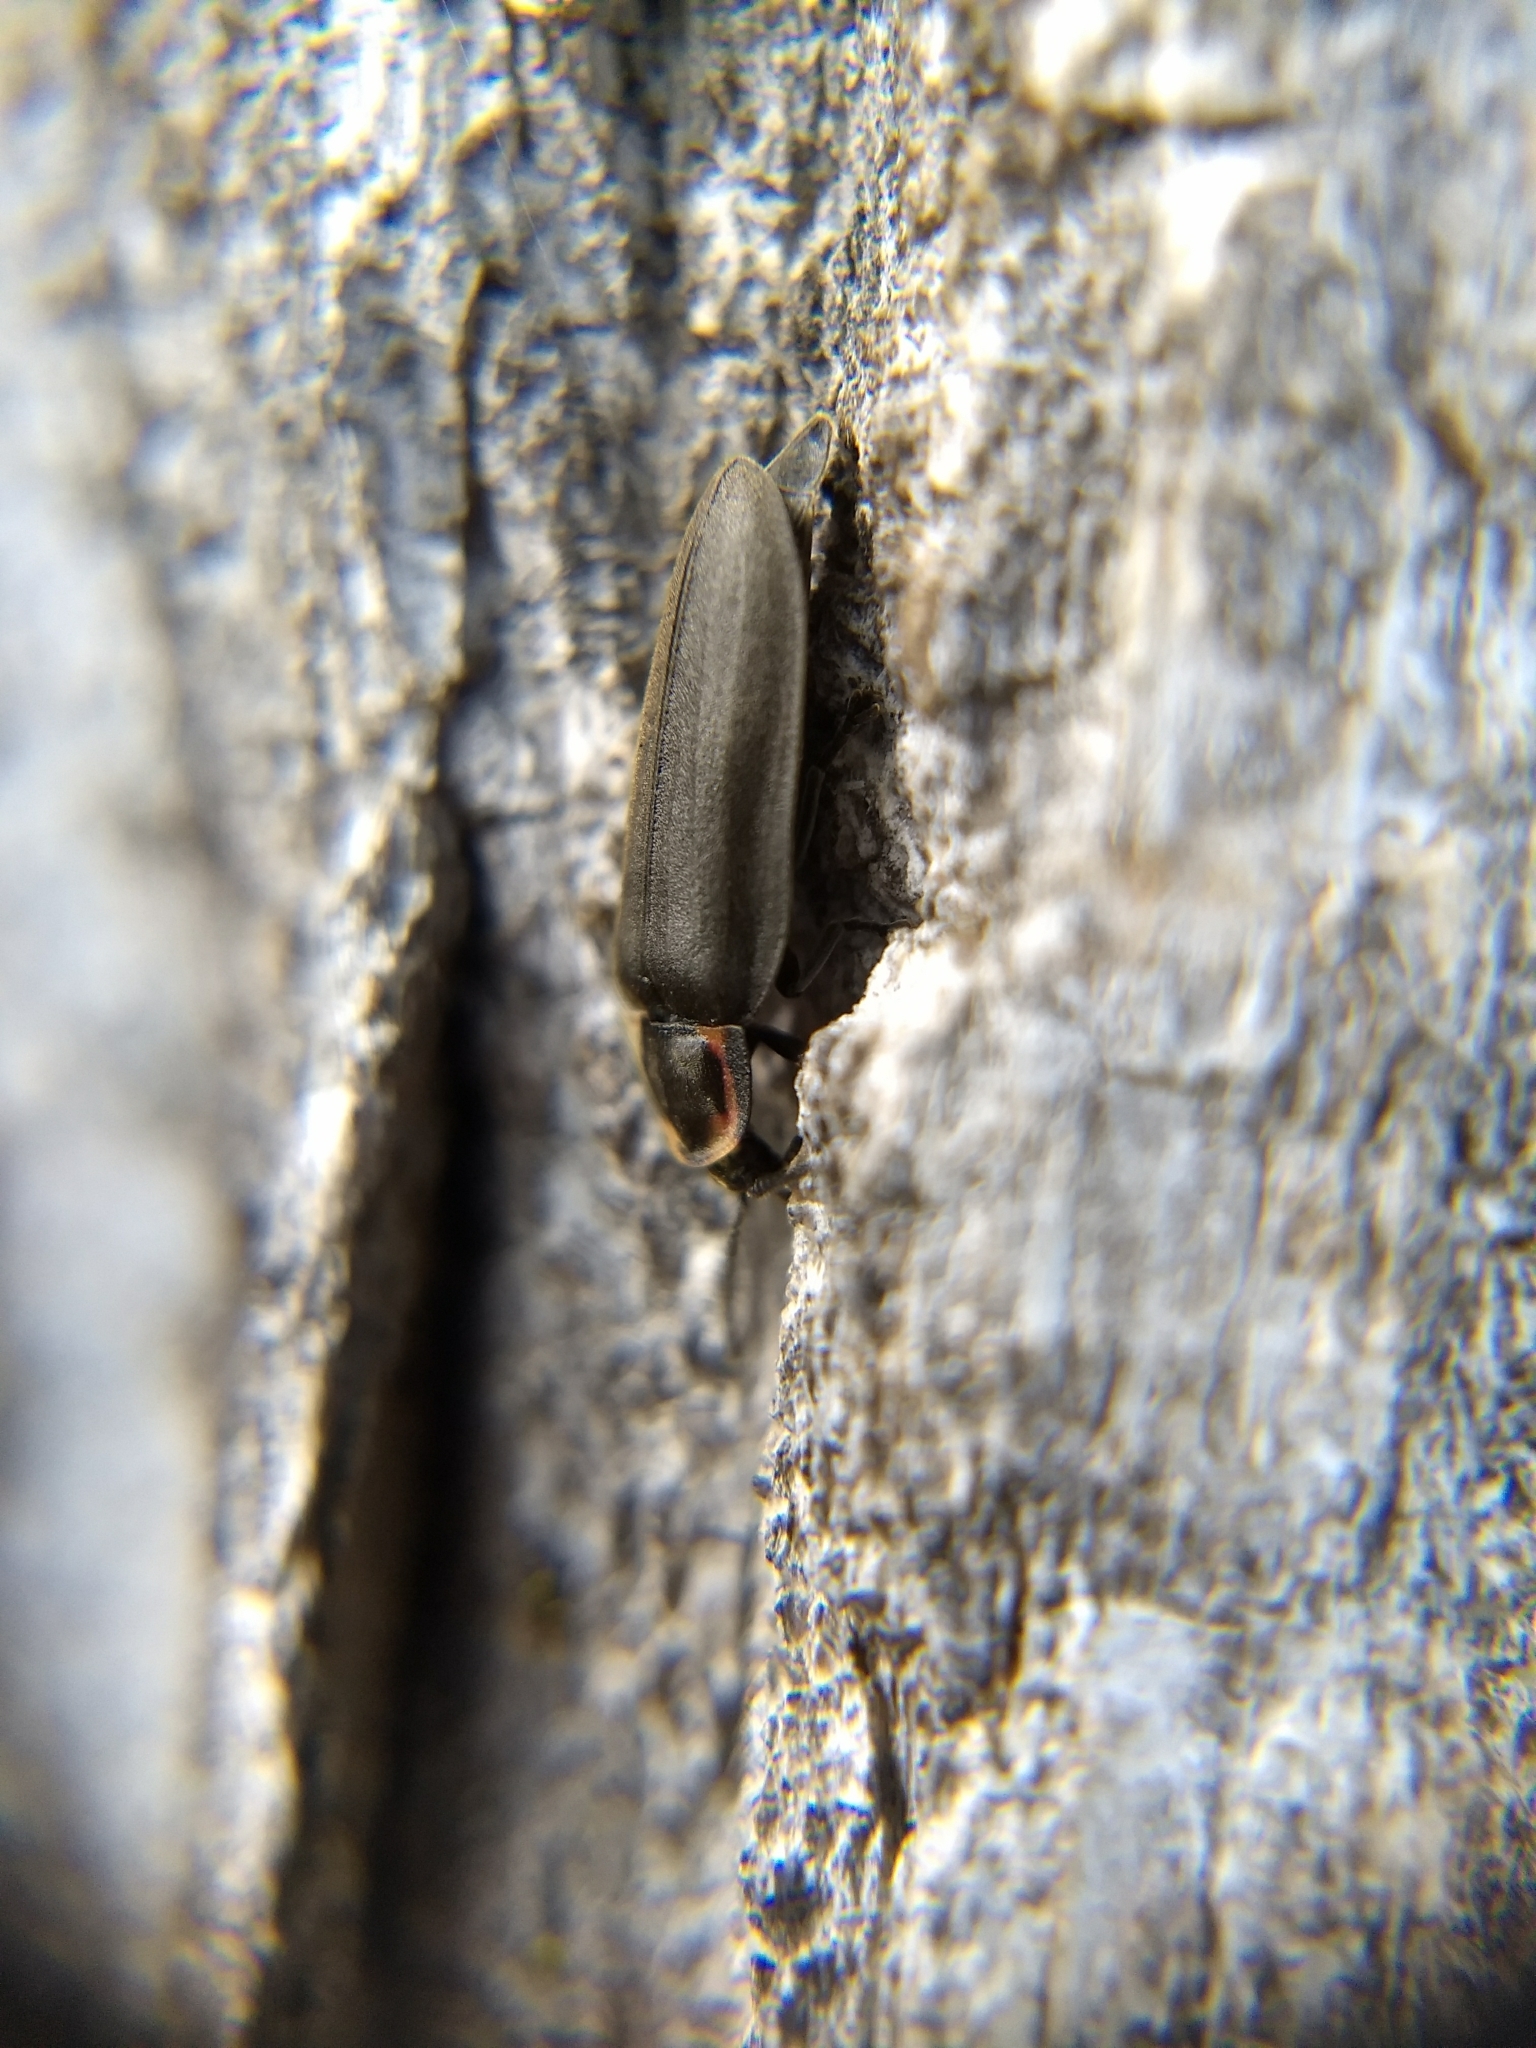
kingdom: Animalia
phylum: Arthropoda
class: Insecta
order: Coleoptera
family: Lampyridae
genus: Photinus
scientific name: Photinus corrusca
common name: Winter firefly
